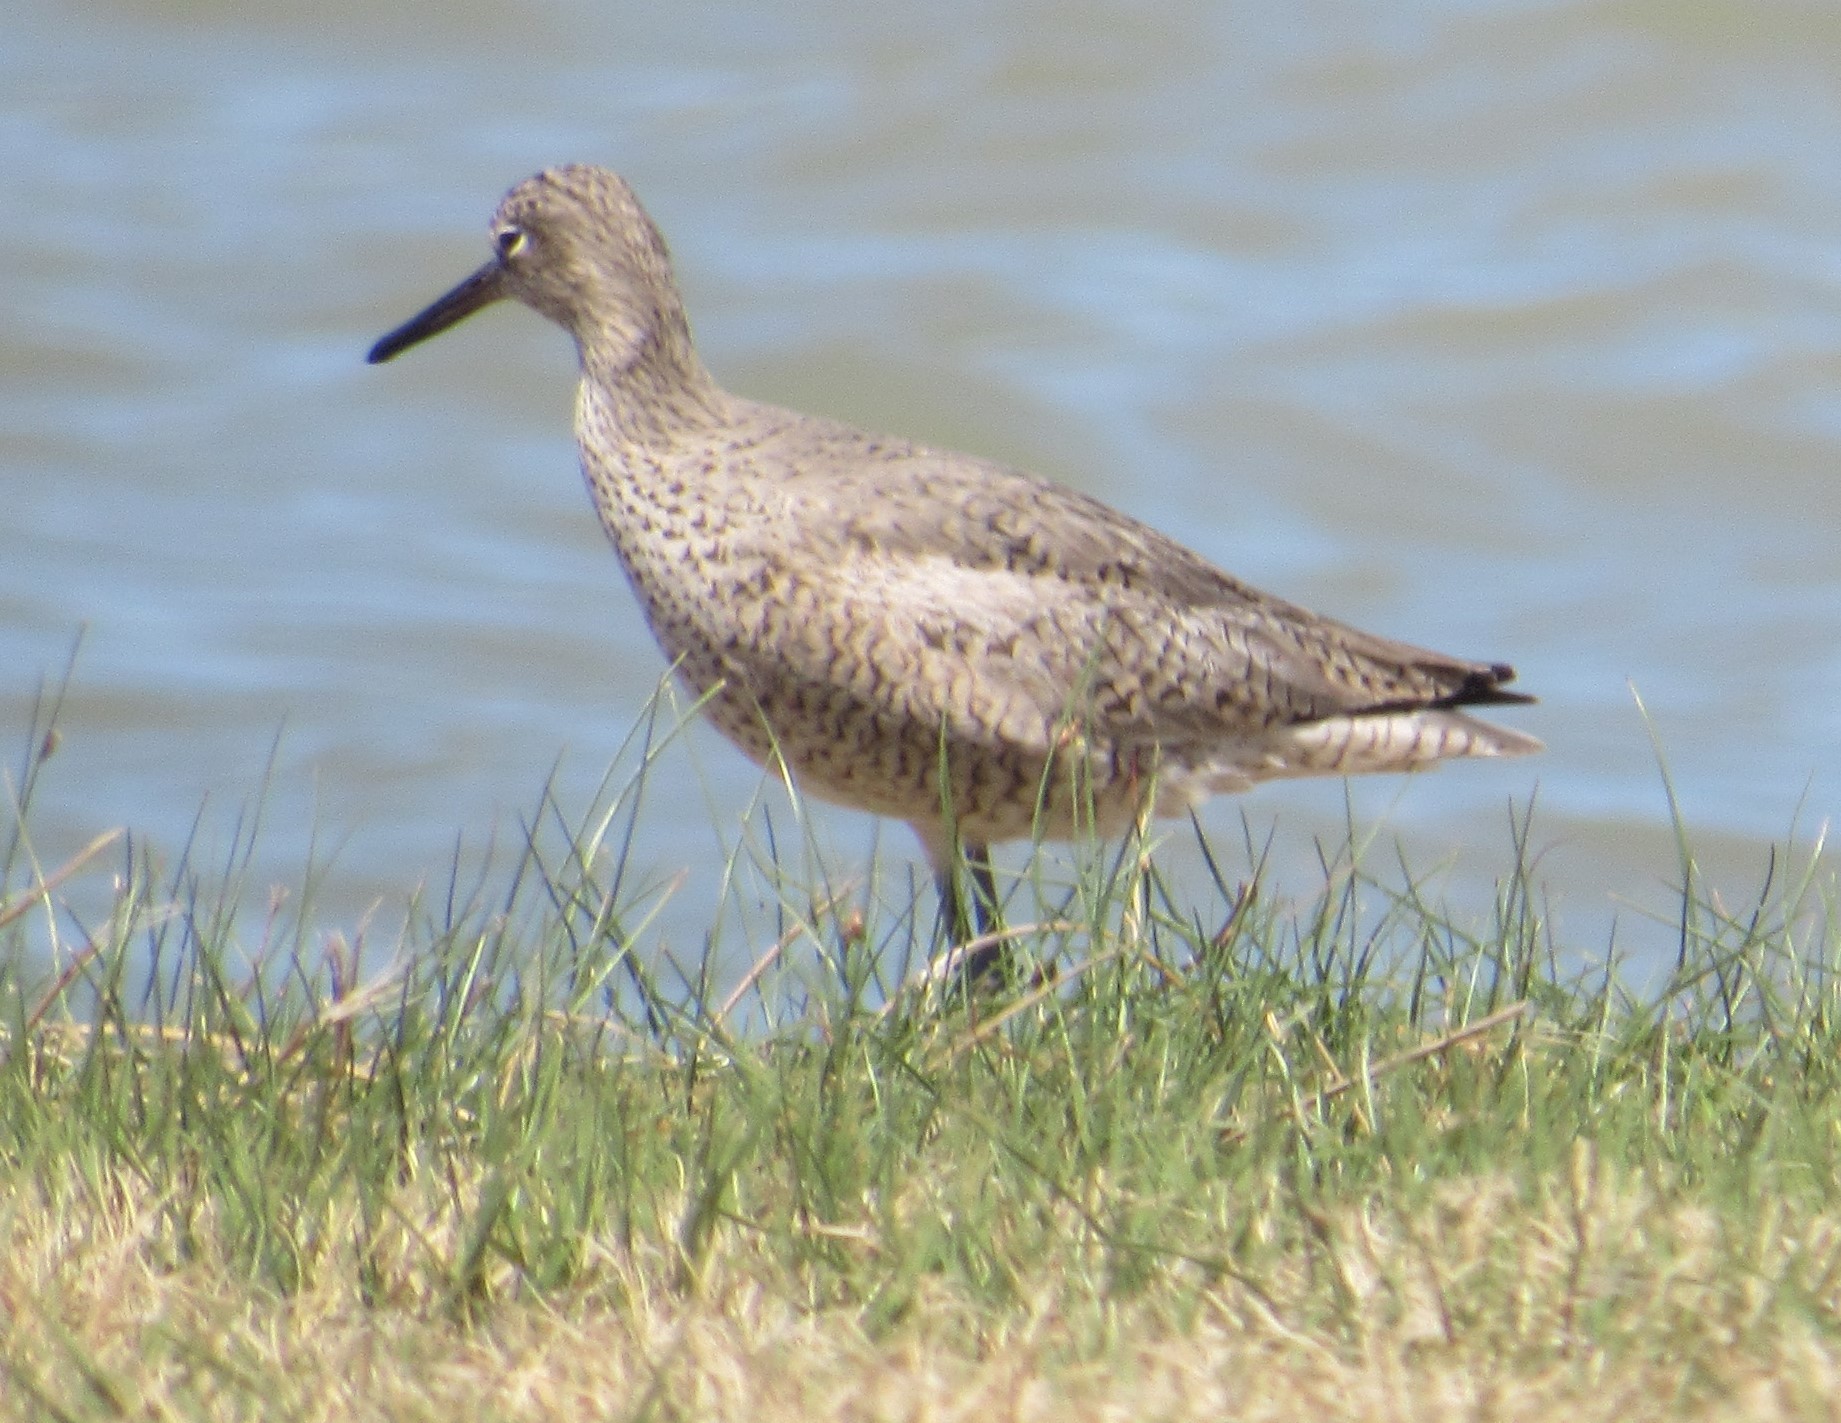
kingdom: Animalia
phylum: Chordata
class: Aves
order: Charadriiformes
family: Scolopacidae
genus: Tringa
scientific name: Tringa semipalmata
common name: Willet
